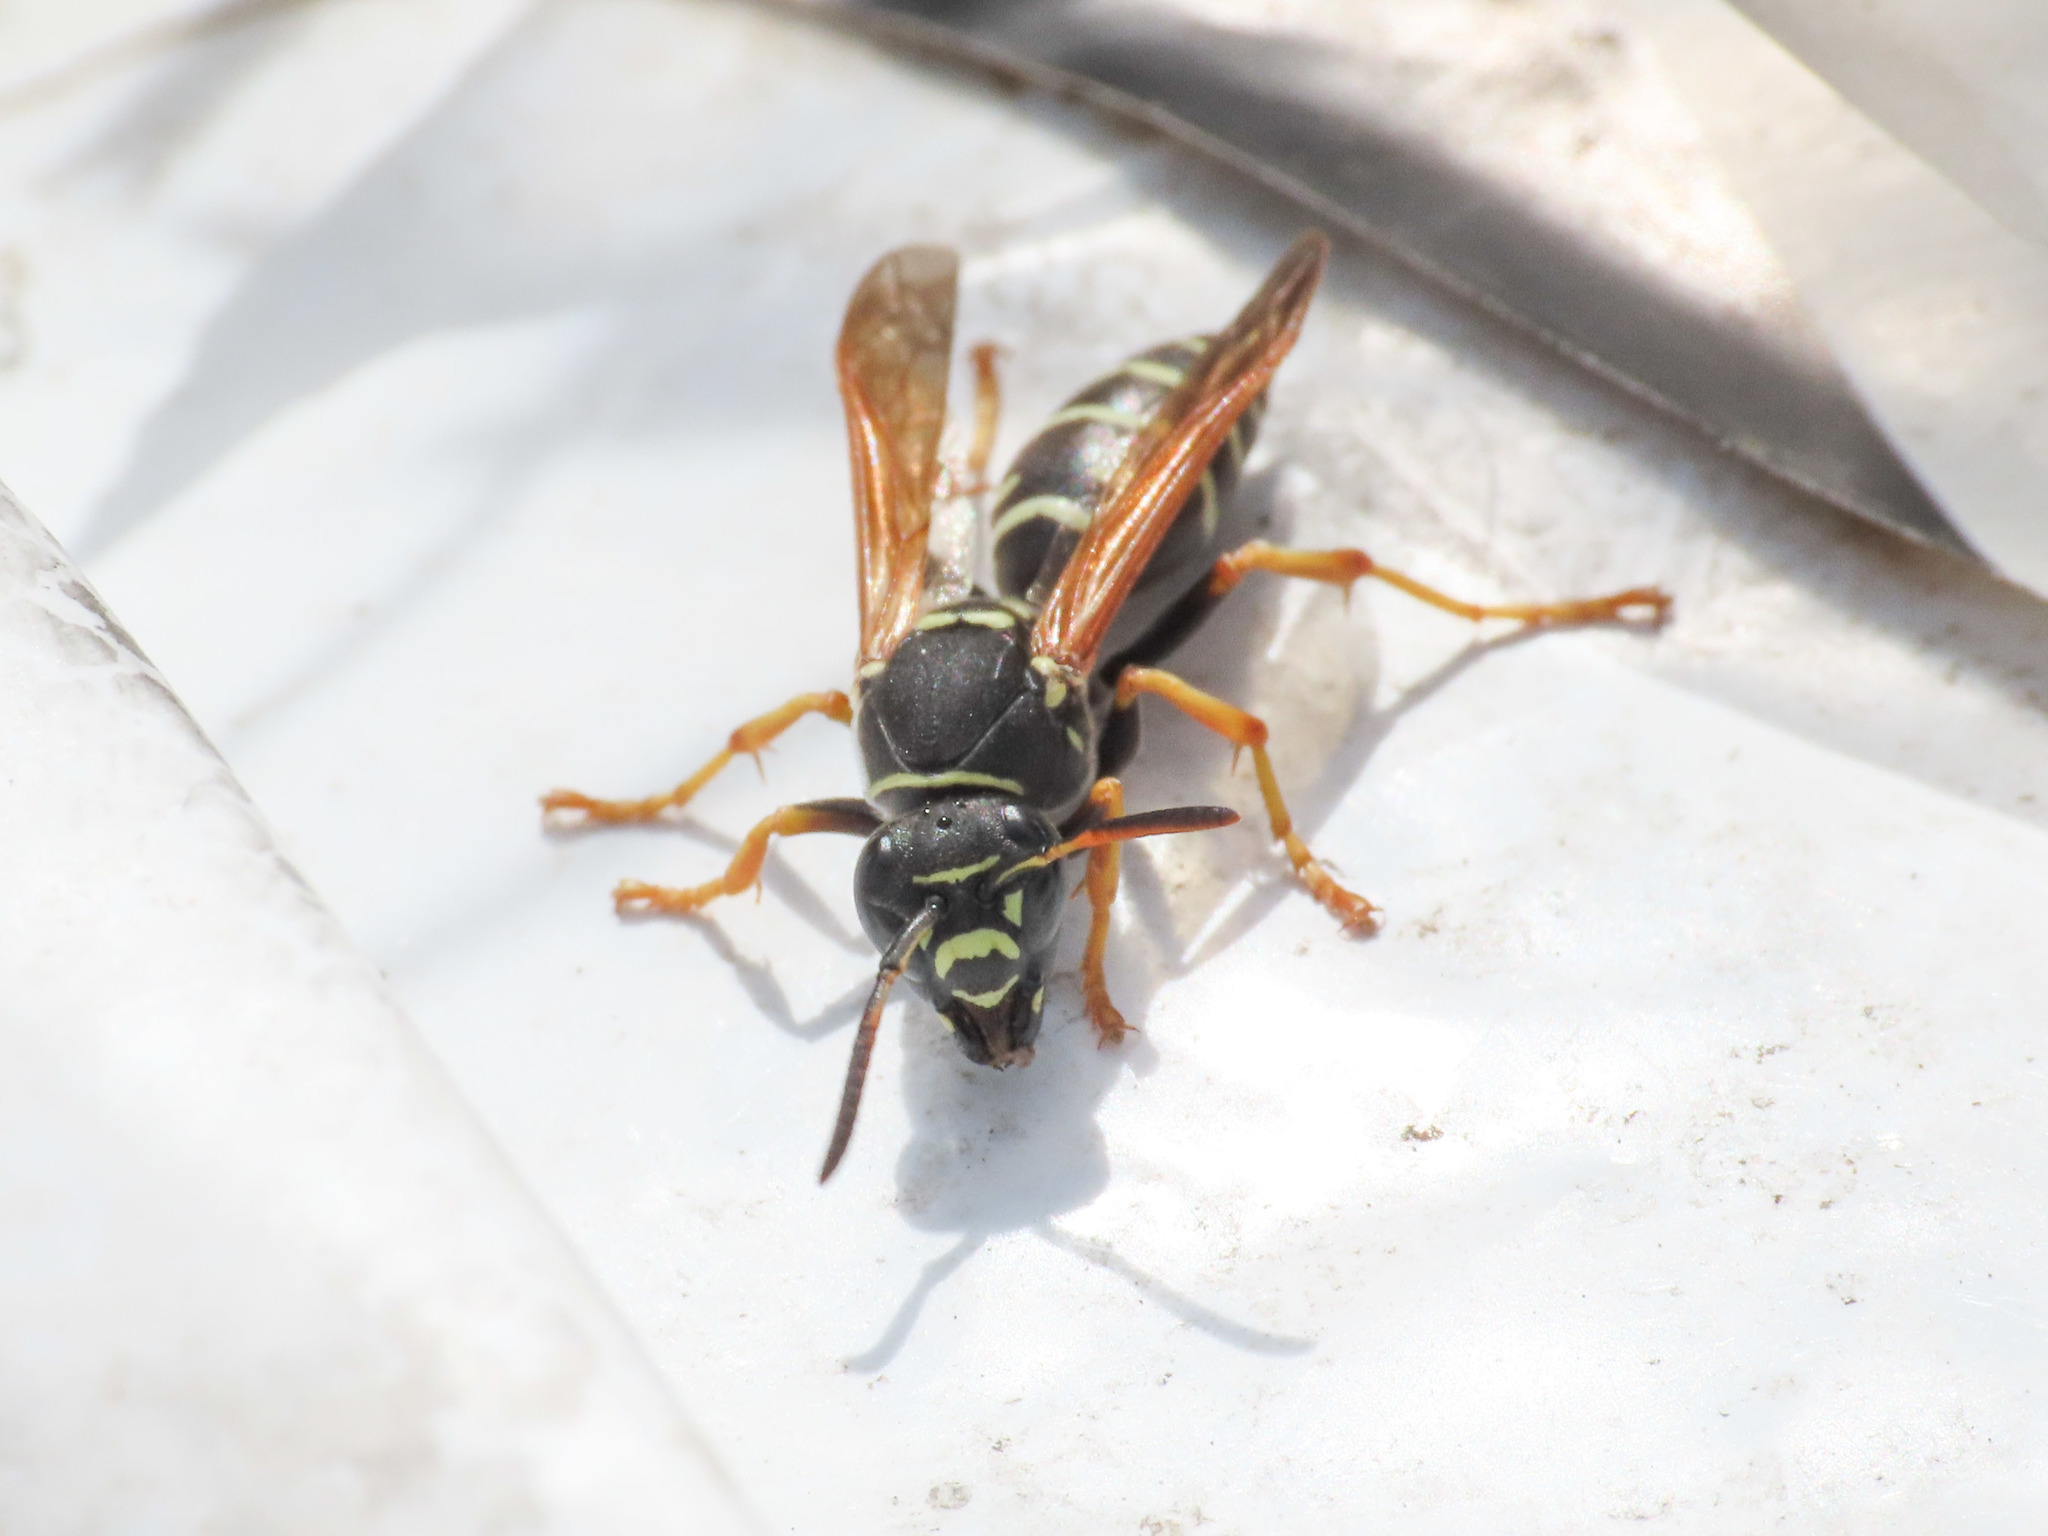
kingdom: Animalia
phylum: Arthropoda
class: Insecta
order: Hymenoptera
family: Eumenidae
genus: Polistes
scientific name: Polistes biglumis
